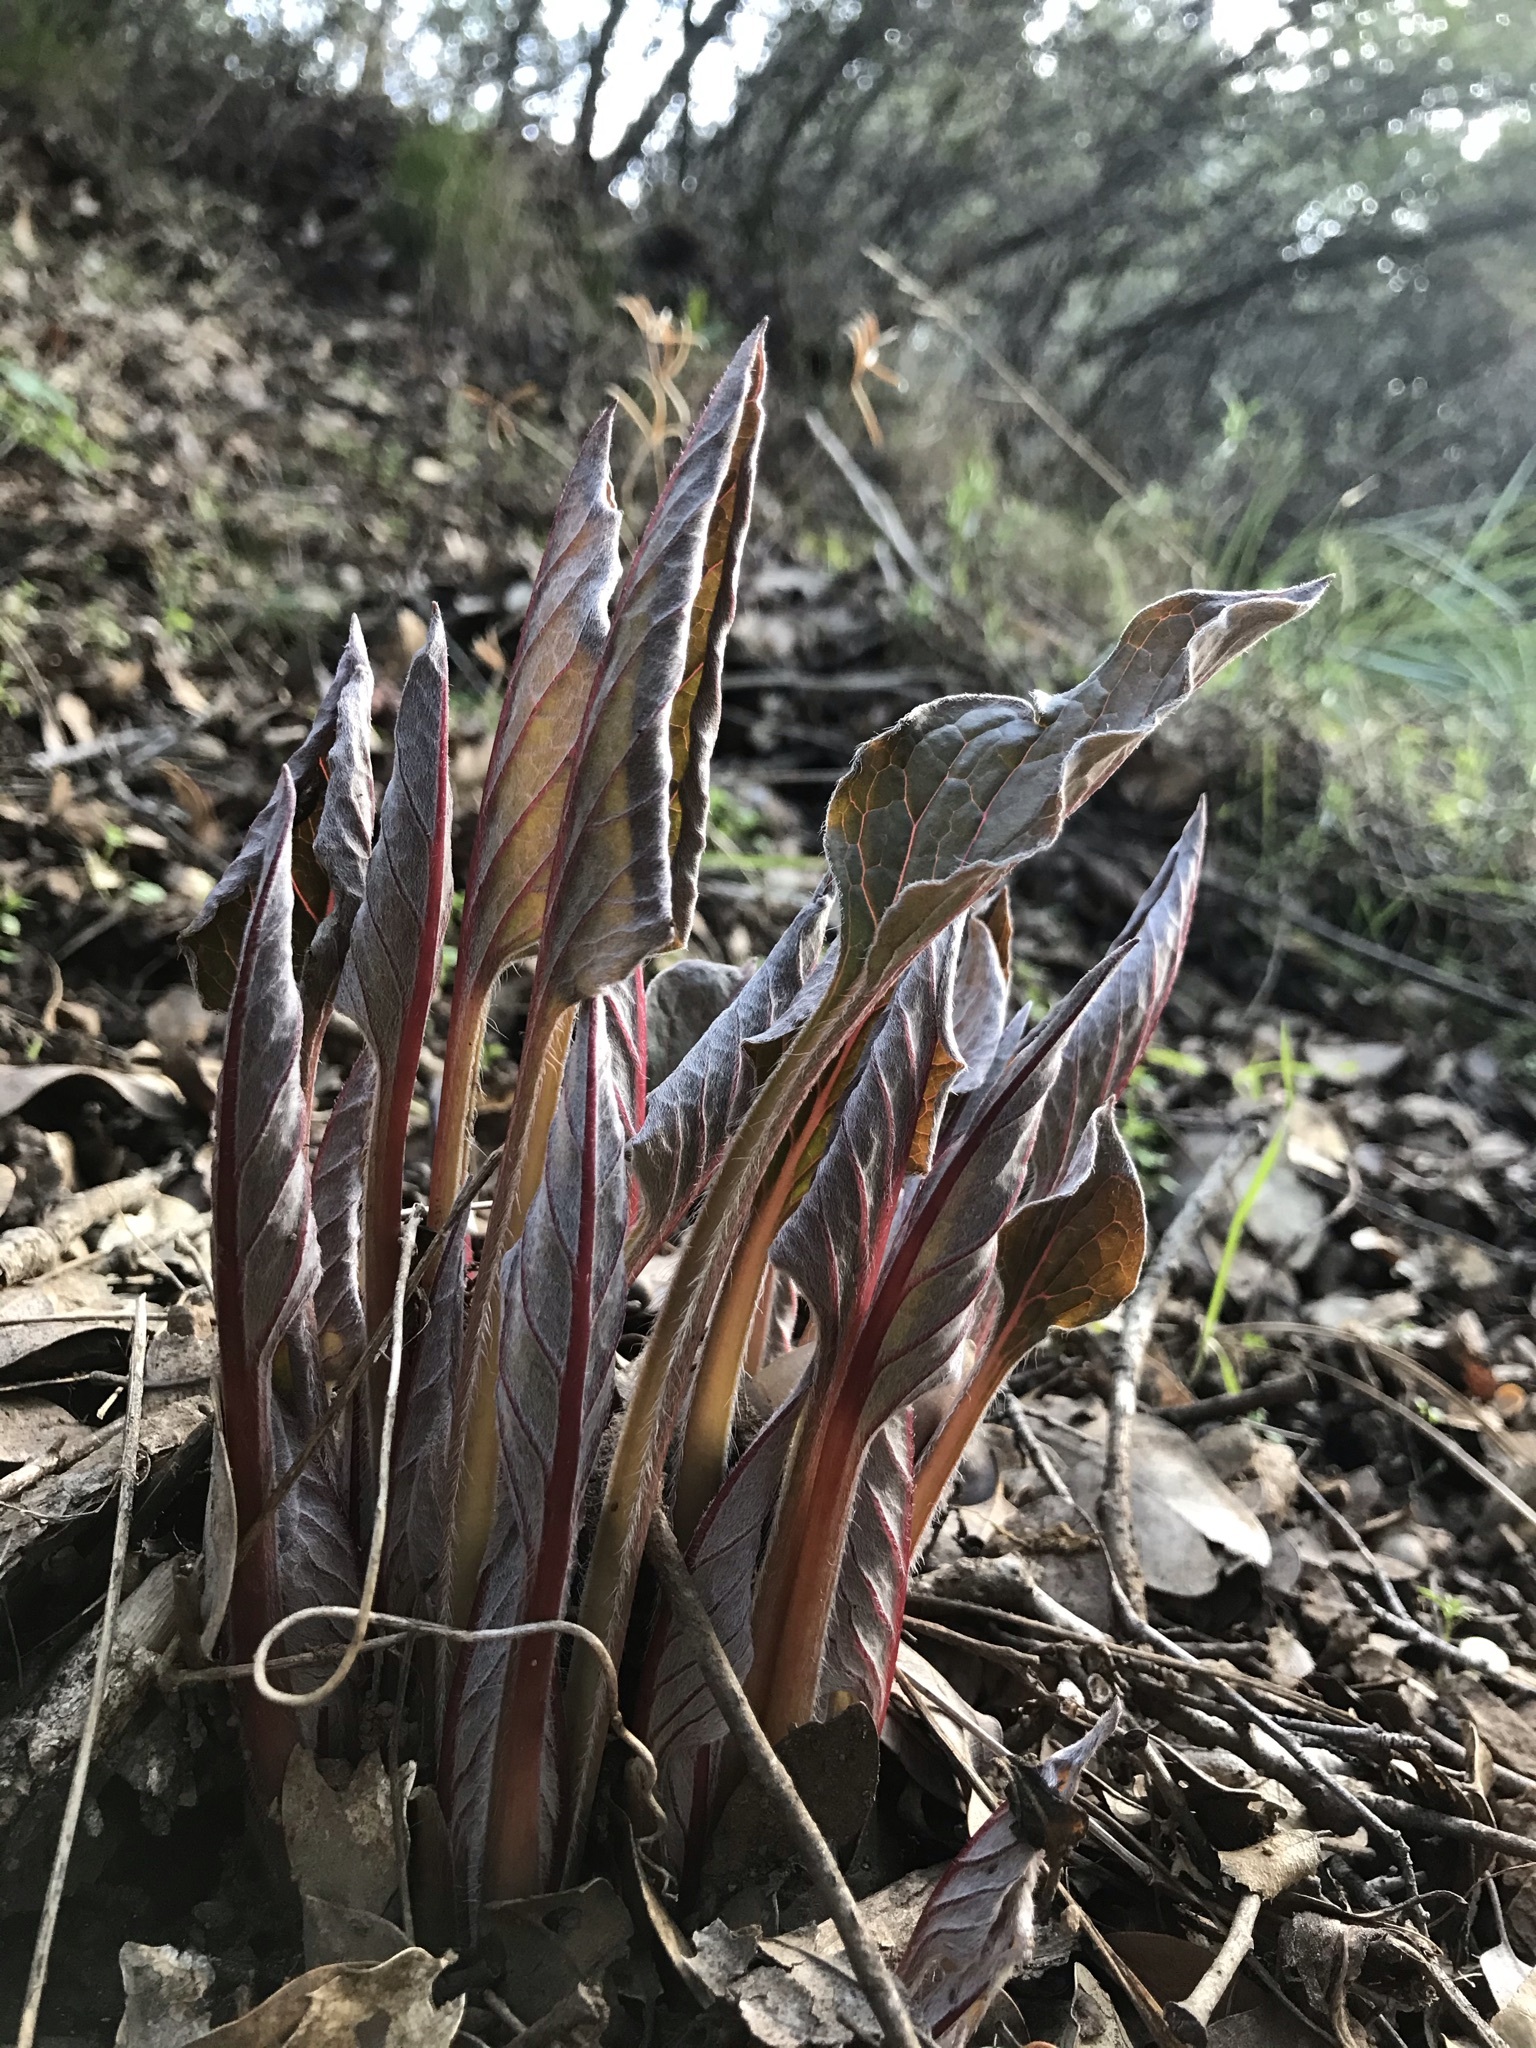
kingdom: Plantae
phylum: Tracheophyta
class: Magnoliopsida
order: Boraginales
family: Boraginaceae
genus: Adelinia
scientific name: Adelinia grande
